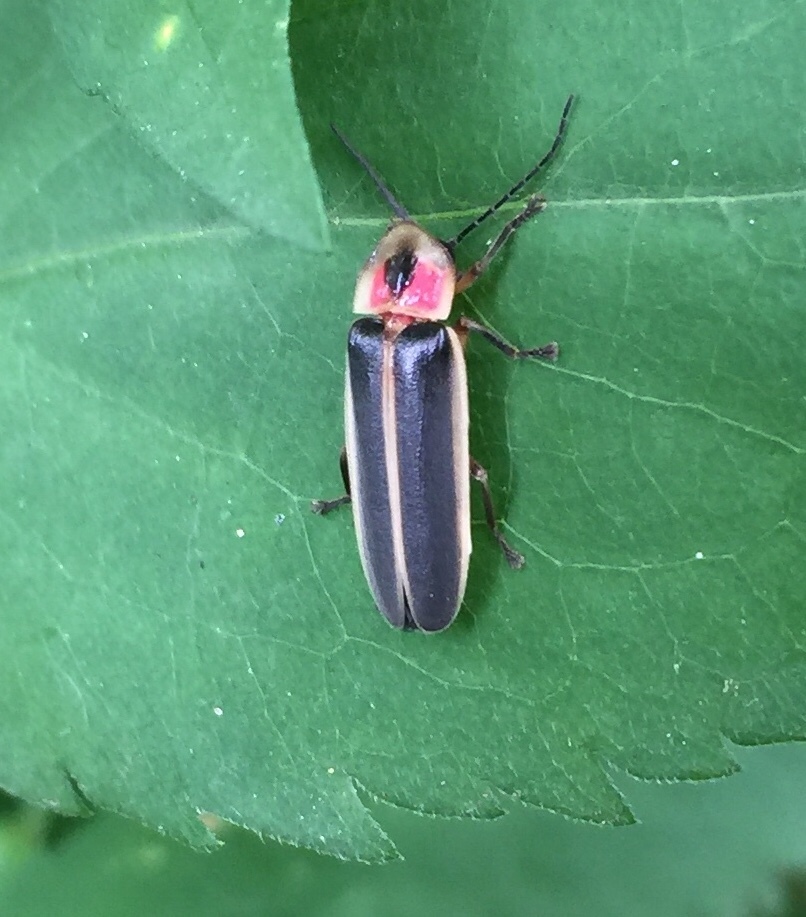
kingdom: Animalia
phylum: Arthropoda
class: Insecta
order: Coleoptera
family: Lampyridae
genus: Photinus
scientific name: Photinus pyralis
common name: Big dipper firefly
